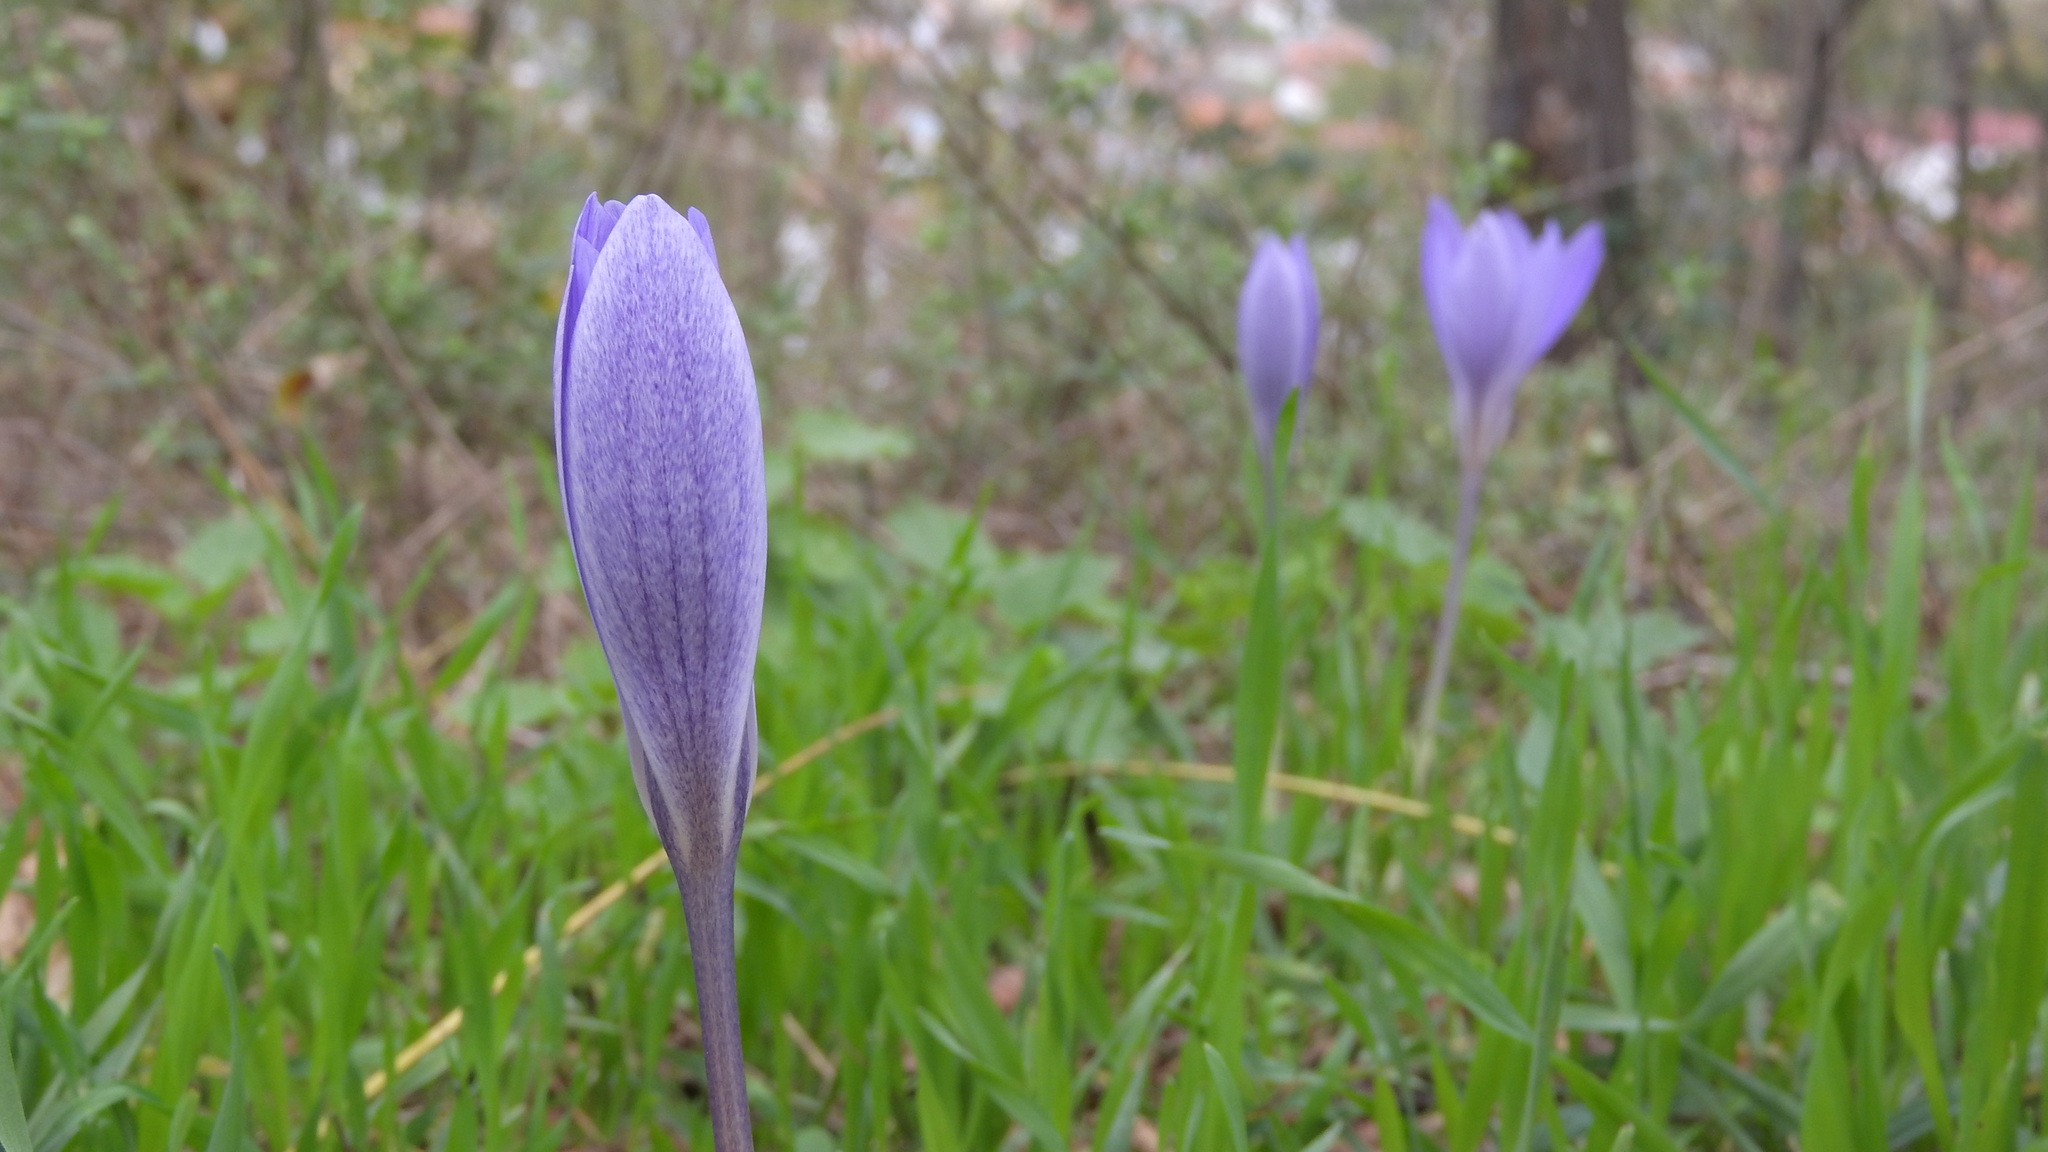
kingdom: Plantae
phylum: Tracheophyta
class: Liliopsida
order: Asparagales
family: Iridaceae
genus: Crocus
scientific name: Crocus speciosus
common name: Bieberstein's crocus
